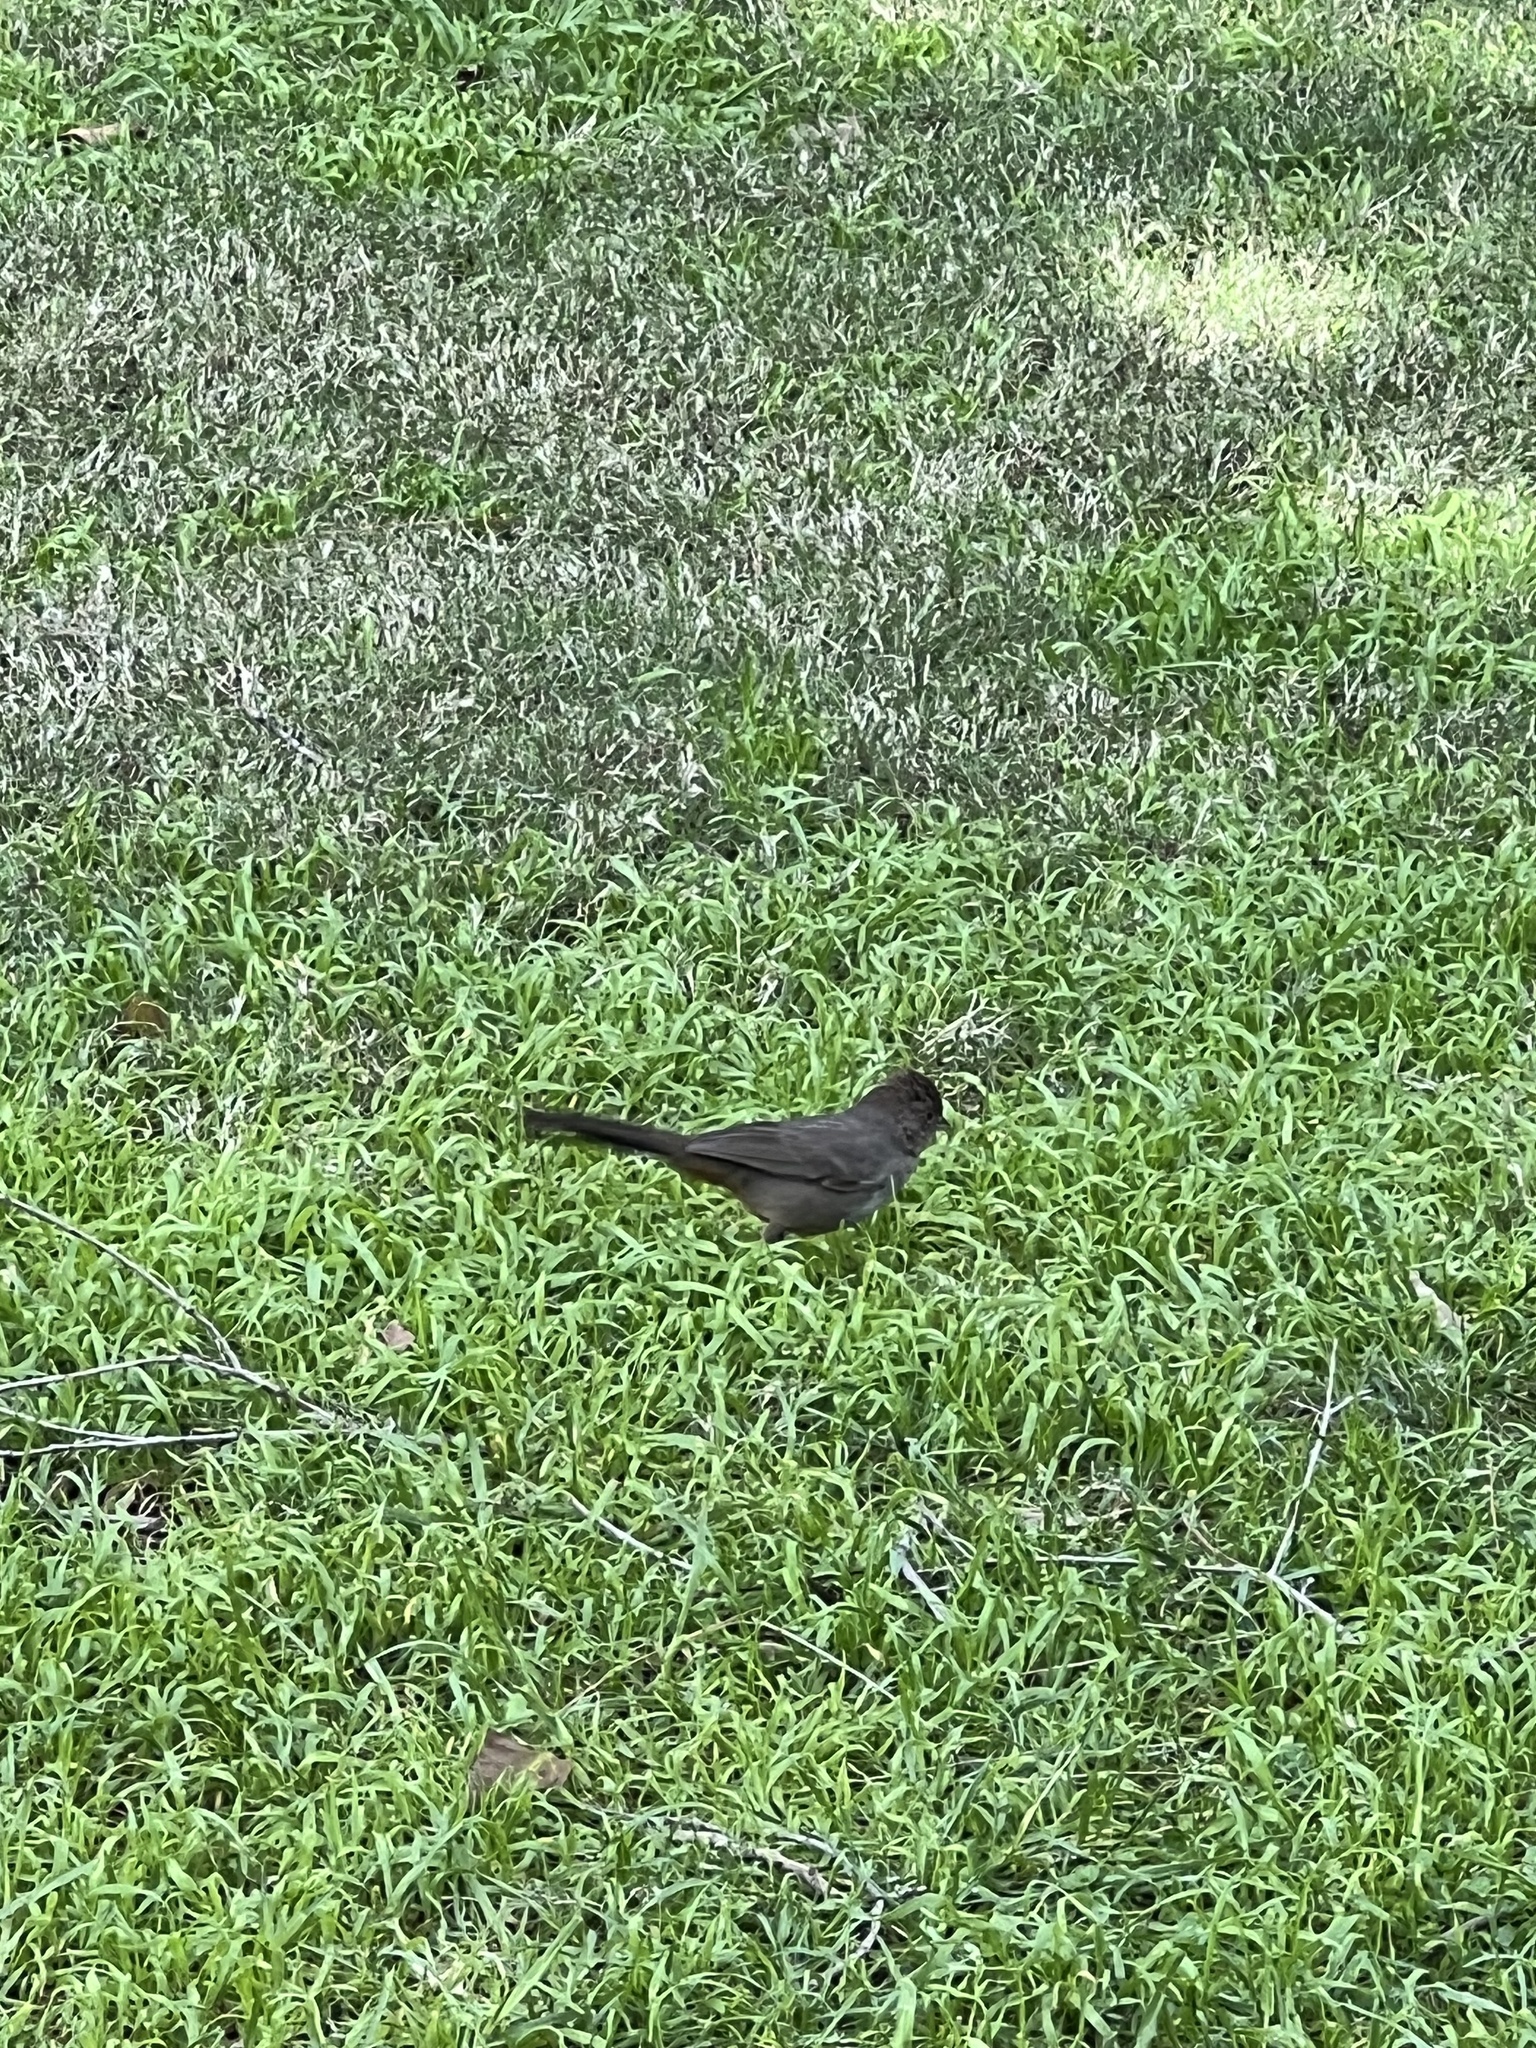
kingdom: Animalia
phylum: Chordata
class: Aves
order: Passeriformes
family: Passerellidae
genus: Melozone
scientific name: Melozone crissalis
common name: California towhee
